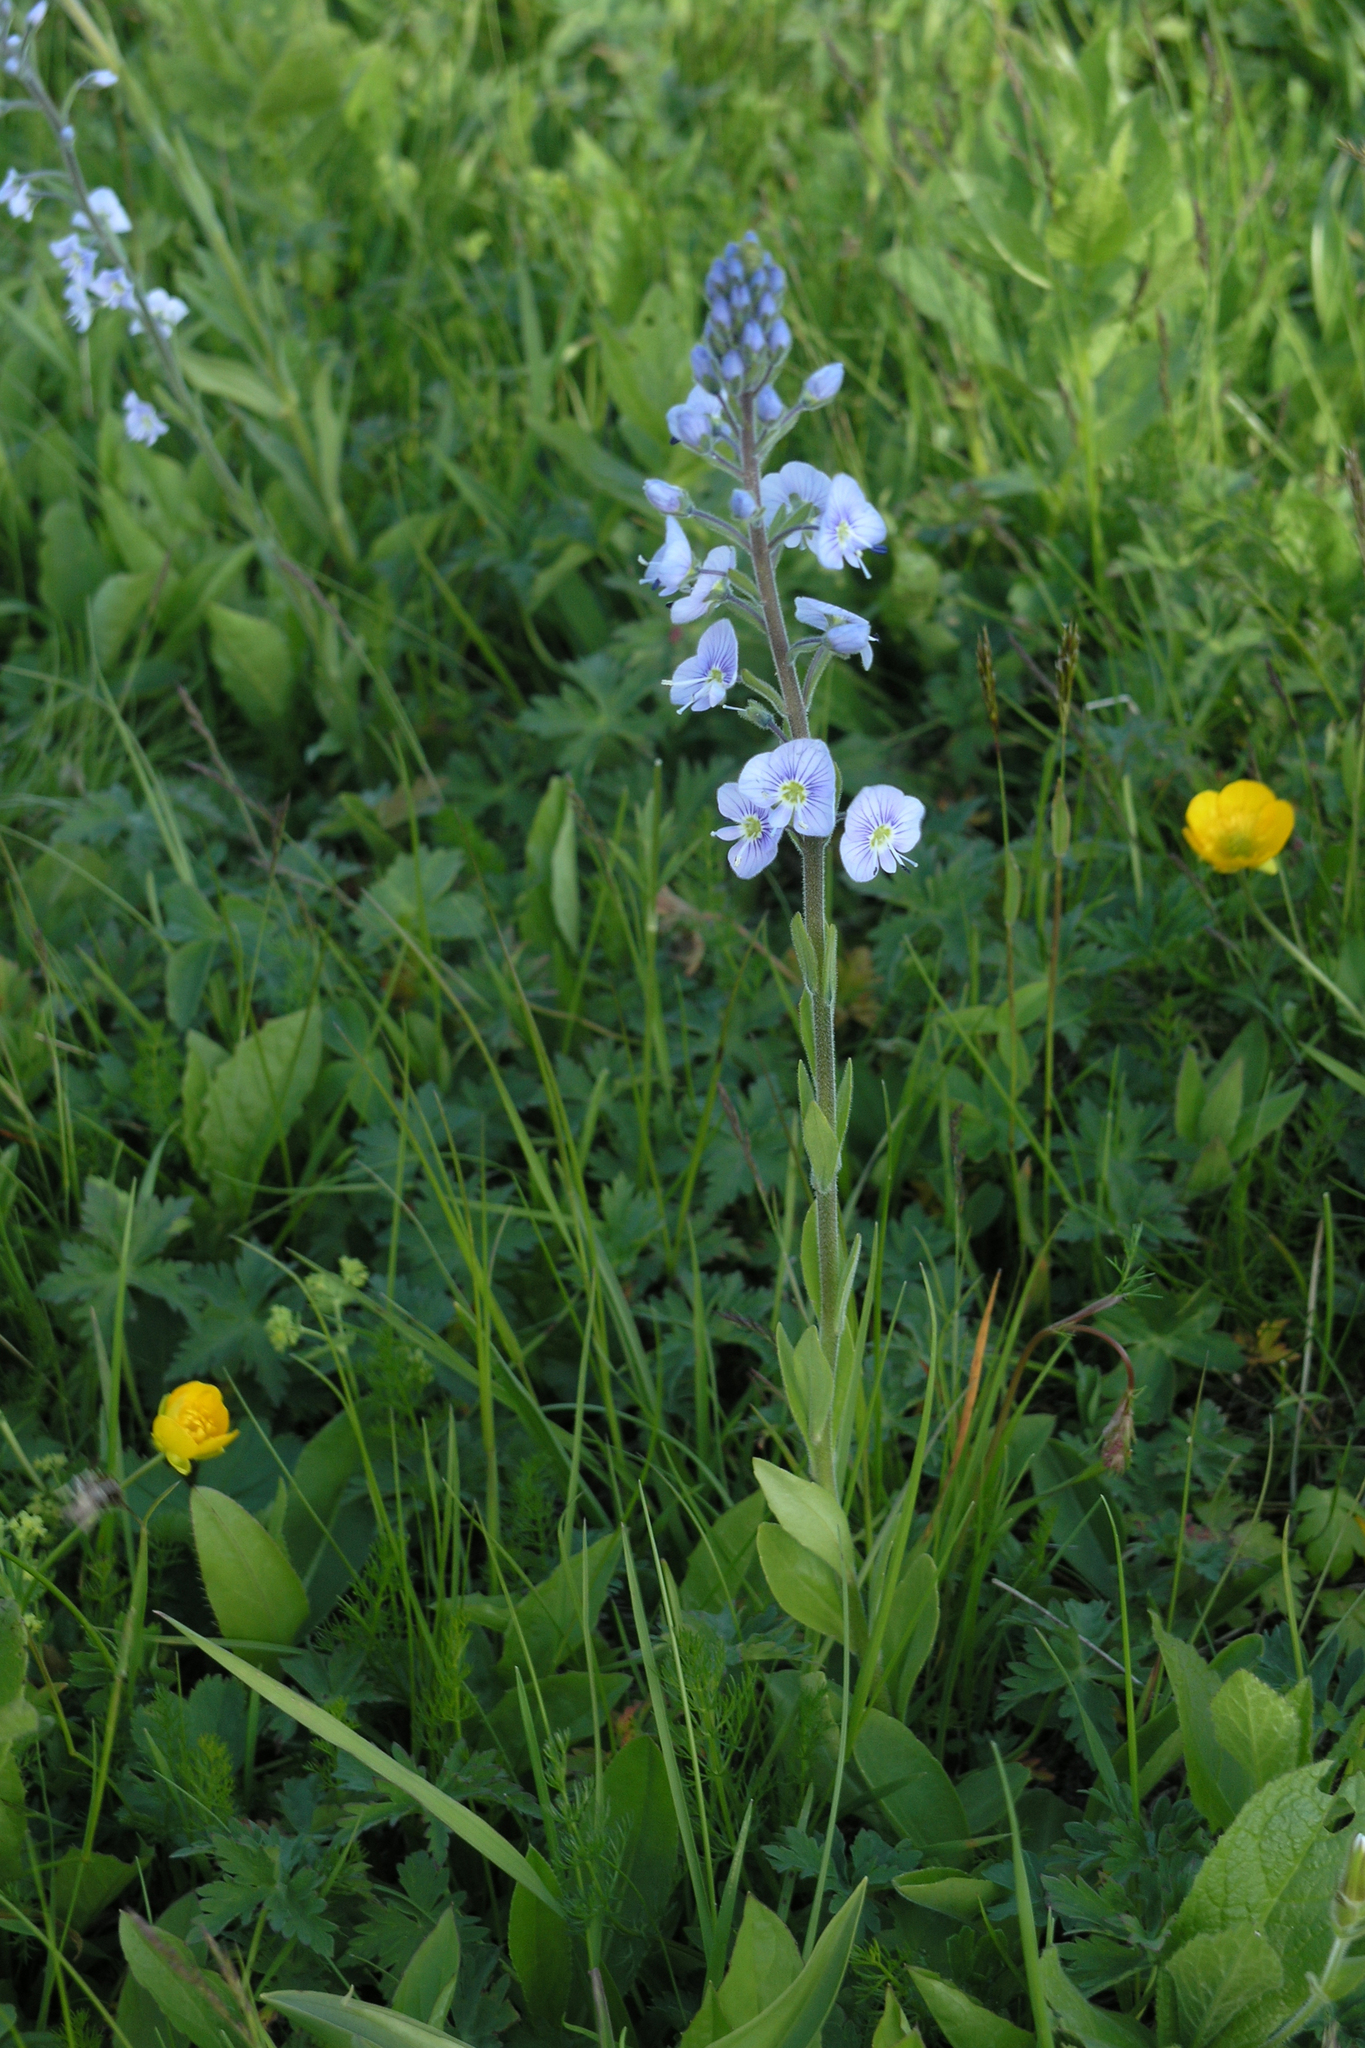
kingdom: Plantae
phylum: Tracheophyta
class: Magnoliopsida
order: Lamiales
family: Plantaginaceae
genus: Veronica
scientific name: Veronica gentianoides
